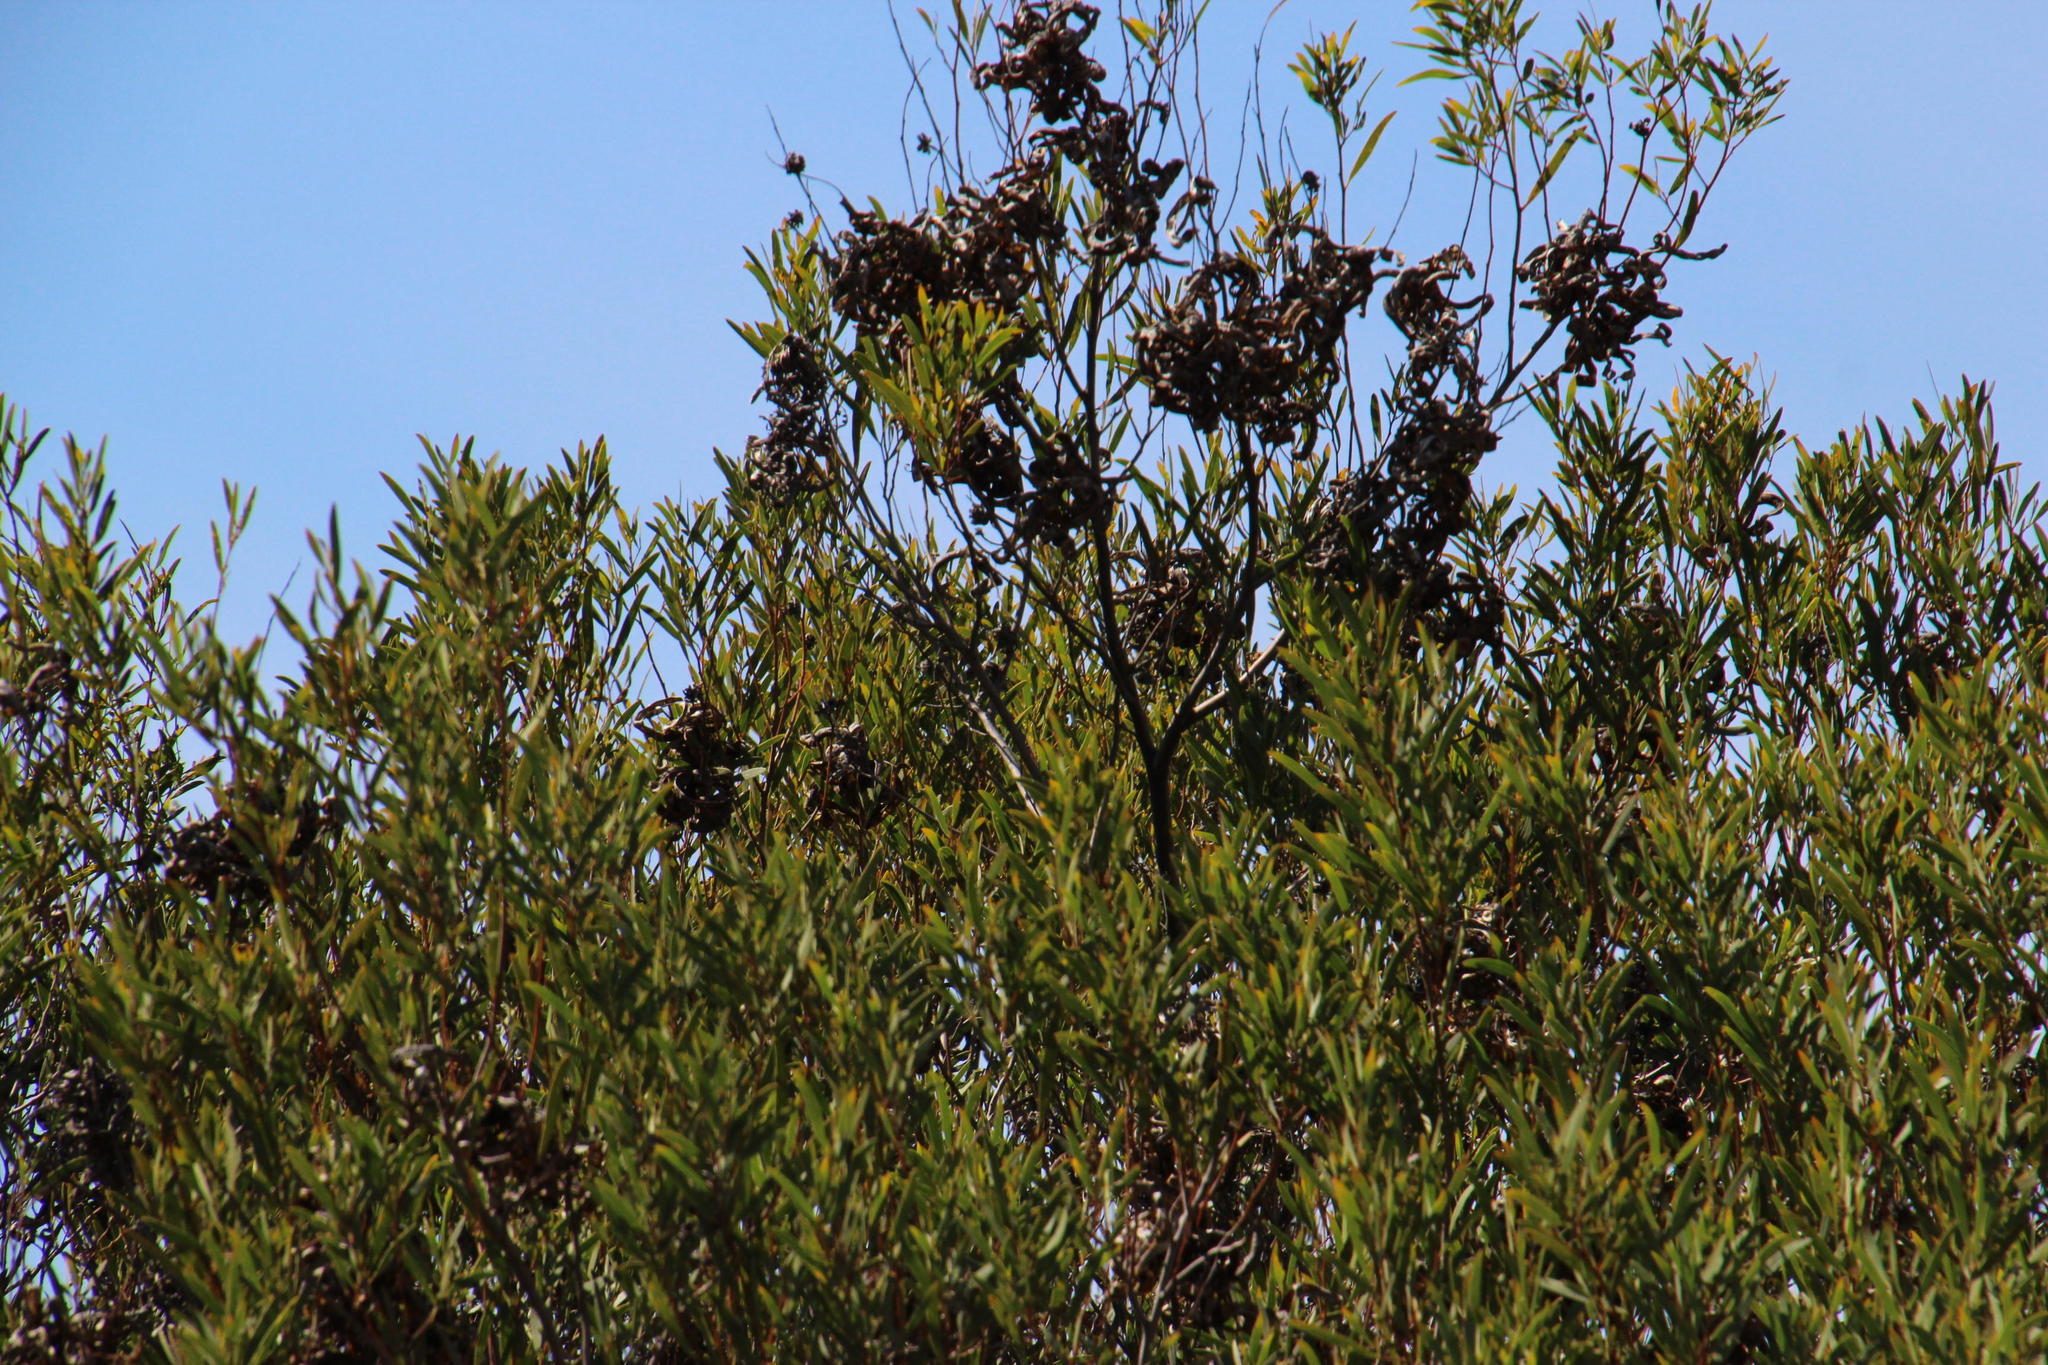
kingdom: Plantae
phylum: Tracheophyta
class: Magnoliopsida
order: Fabales
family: Fabaceae
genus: Acacia
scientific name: Acacia cyclops
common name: Coastal wattle
